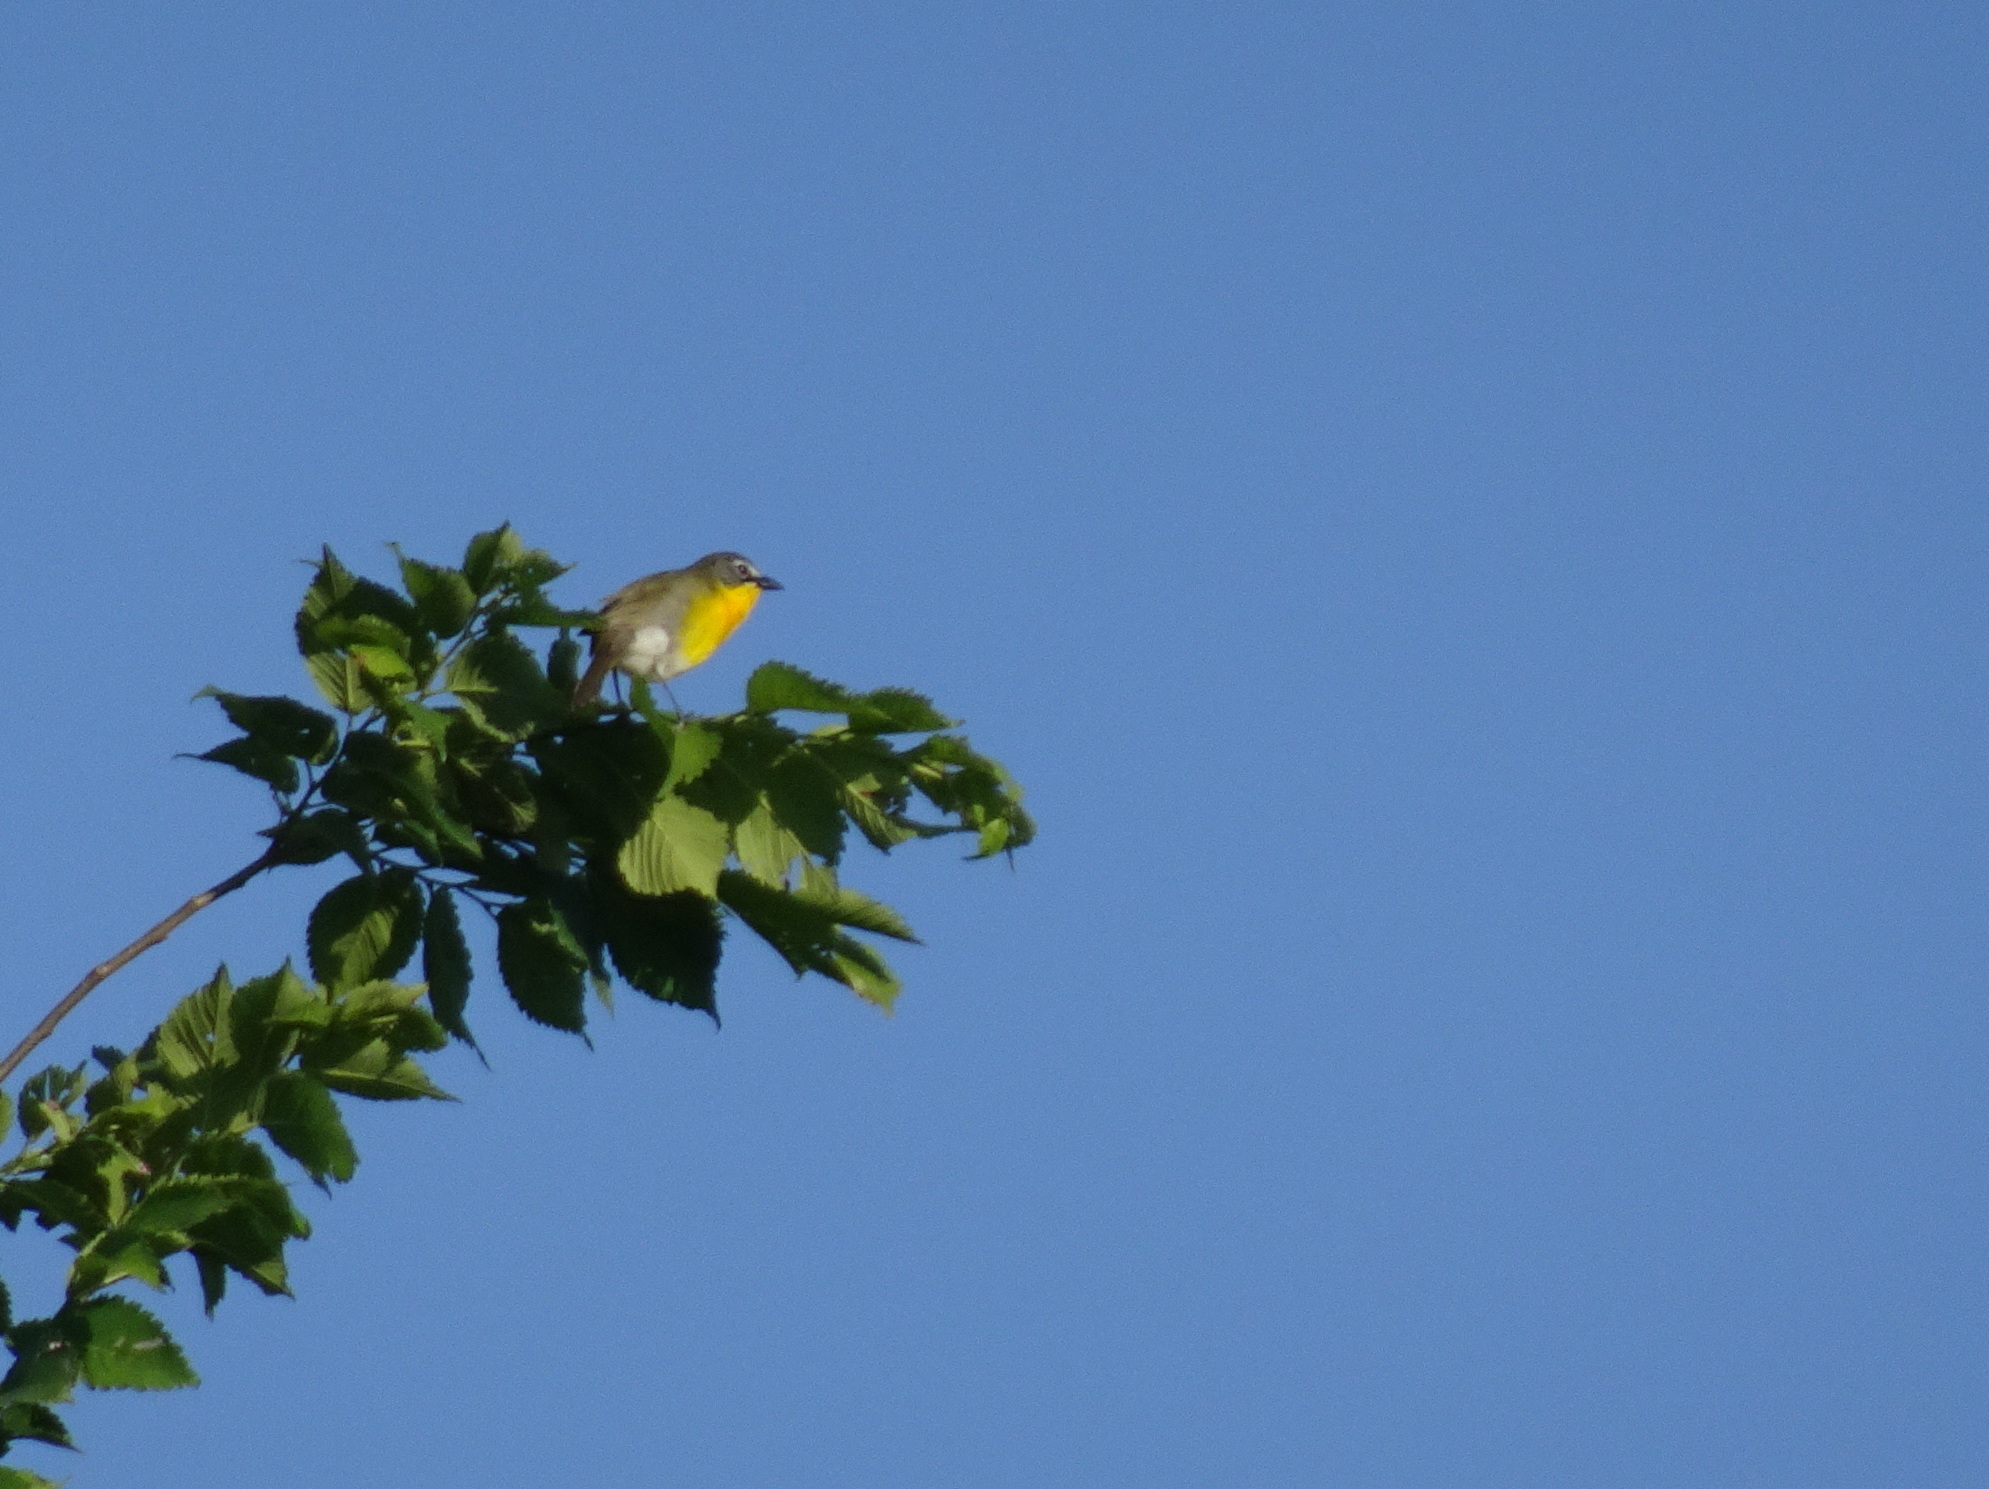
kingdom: Animalia
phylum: Chordata
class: Aves
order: Passeriformes
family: Parulidae
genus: Icteria
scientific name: Icteria virens
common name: Yellow-breasted chat
